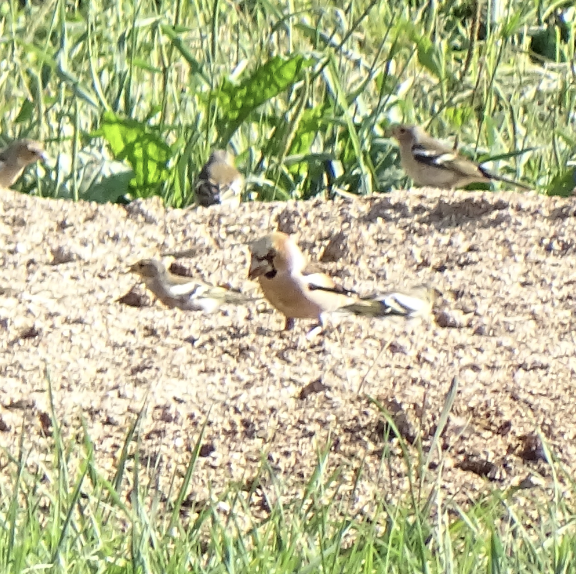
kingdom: Animalia
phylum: Chordata
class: Aves
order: Passeriformes
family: Fringillidae
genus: Coccothraustes
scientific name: Coccothraustes coccothraustes
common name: Hawfinch
